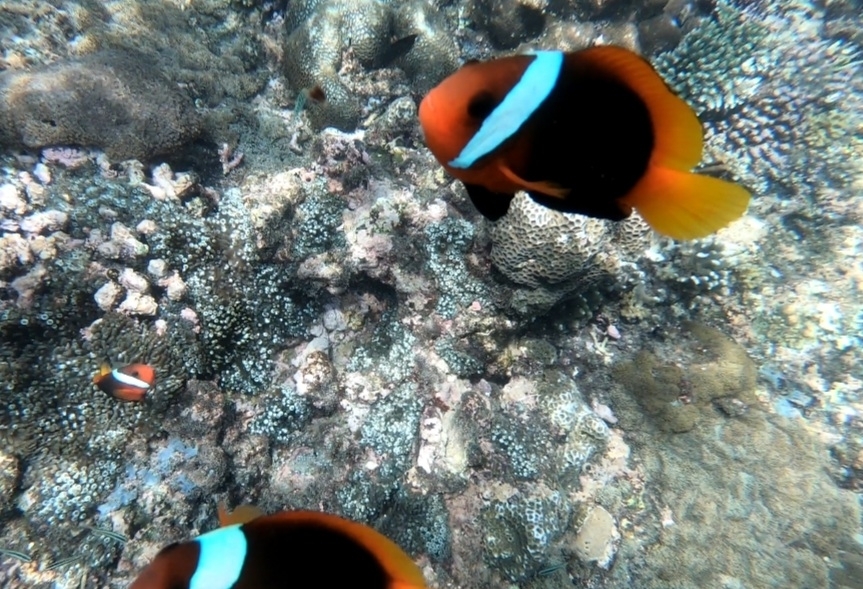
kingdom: Animalia
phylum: Chordata
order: Perciformes
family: Pomacentridae
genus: Amphiprion
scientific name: Amphiprion melanopus
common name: Black anemonefish
